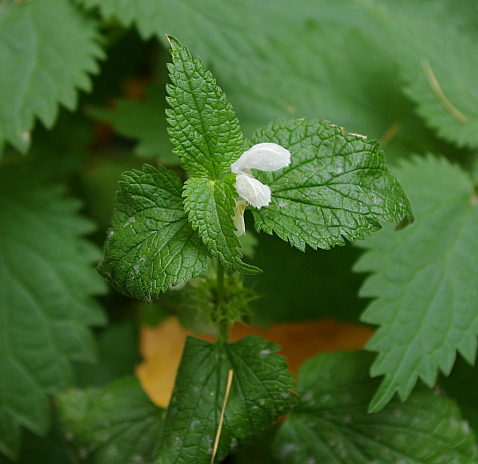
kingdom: Plantae
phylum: Tracheophyta
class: Magnoliopsida
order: Lamiales
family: Lamiaceae
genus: Lamium
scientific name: Lamium album
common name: White dead-nettle
